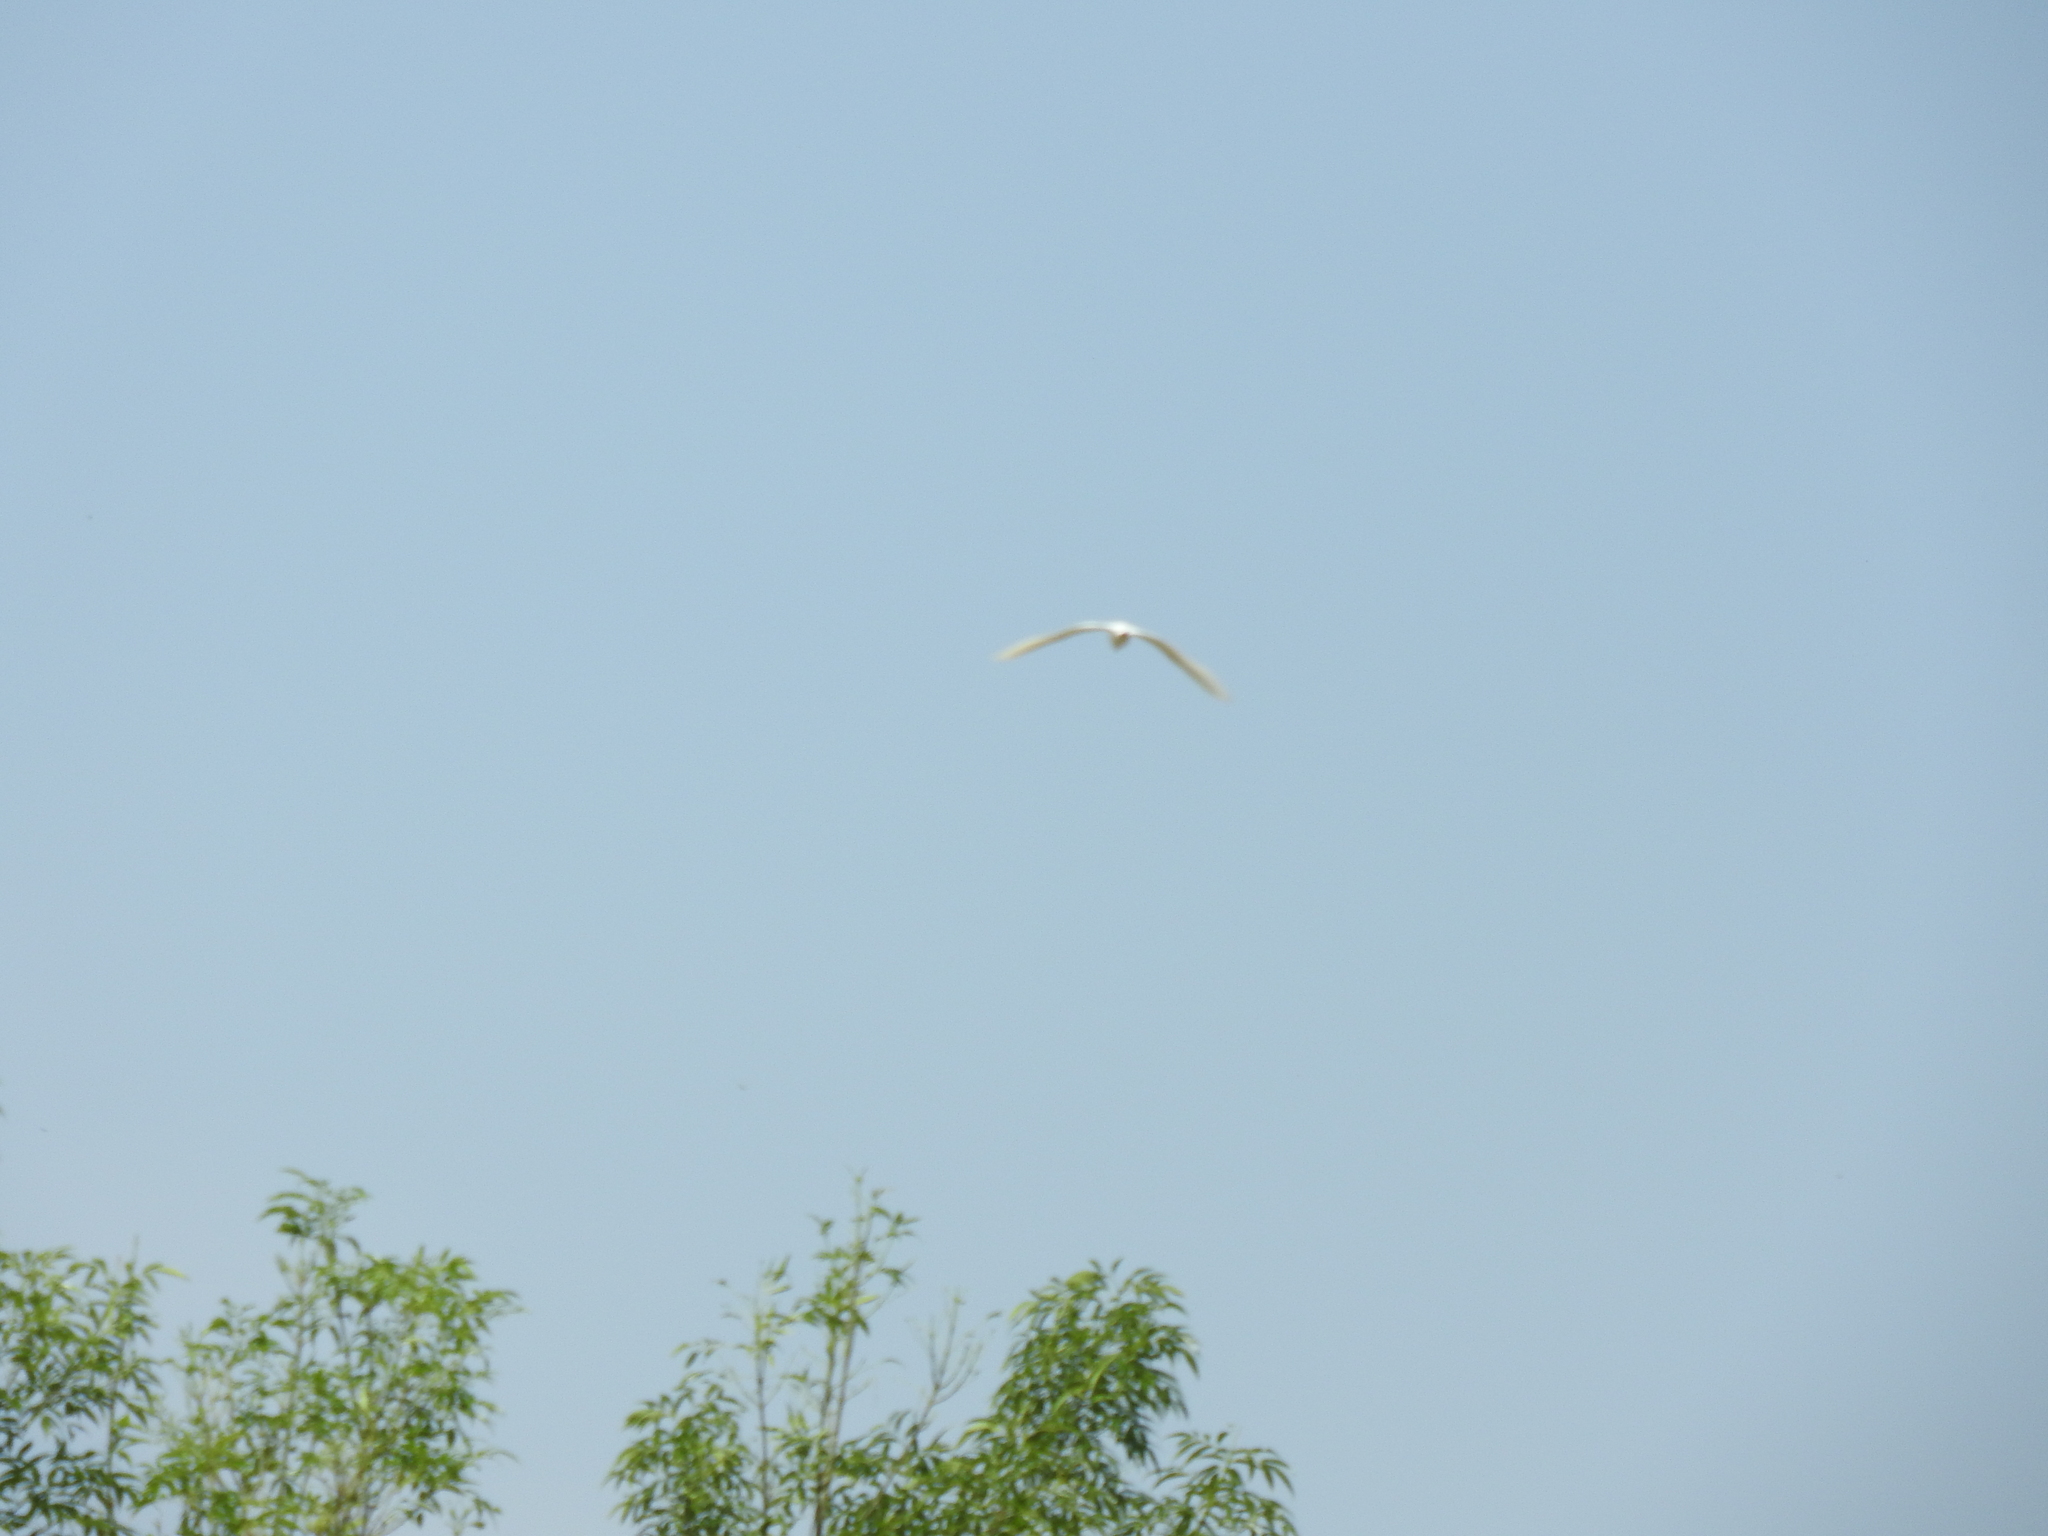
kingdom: Animalia
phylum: Chordata
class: Aves
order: Pelecaniformes
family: Ardeidae
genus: Bubulcus
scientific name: Bubulcus ibis
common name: Cattle egret
